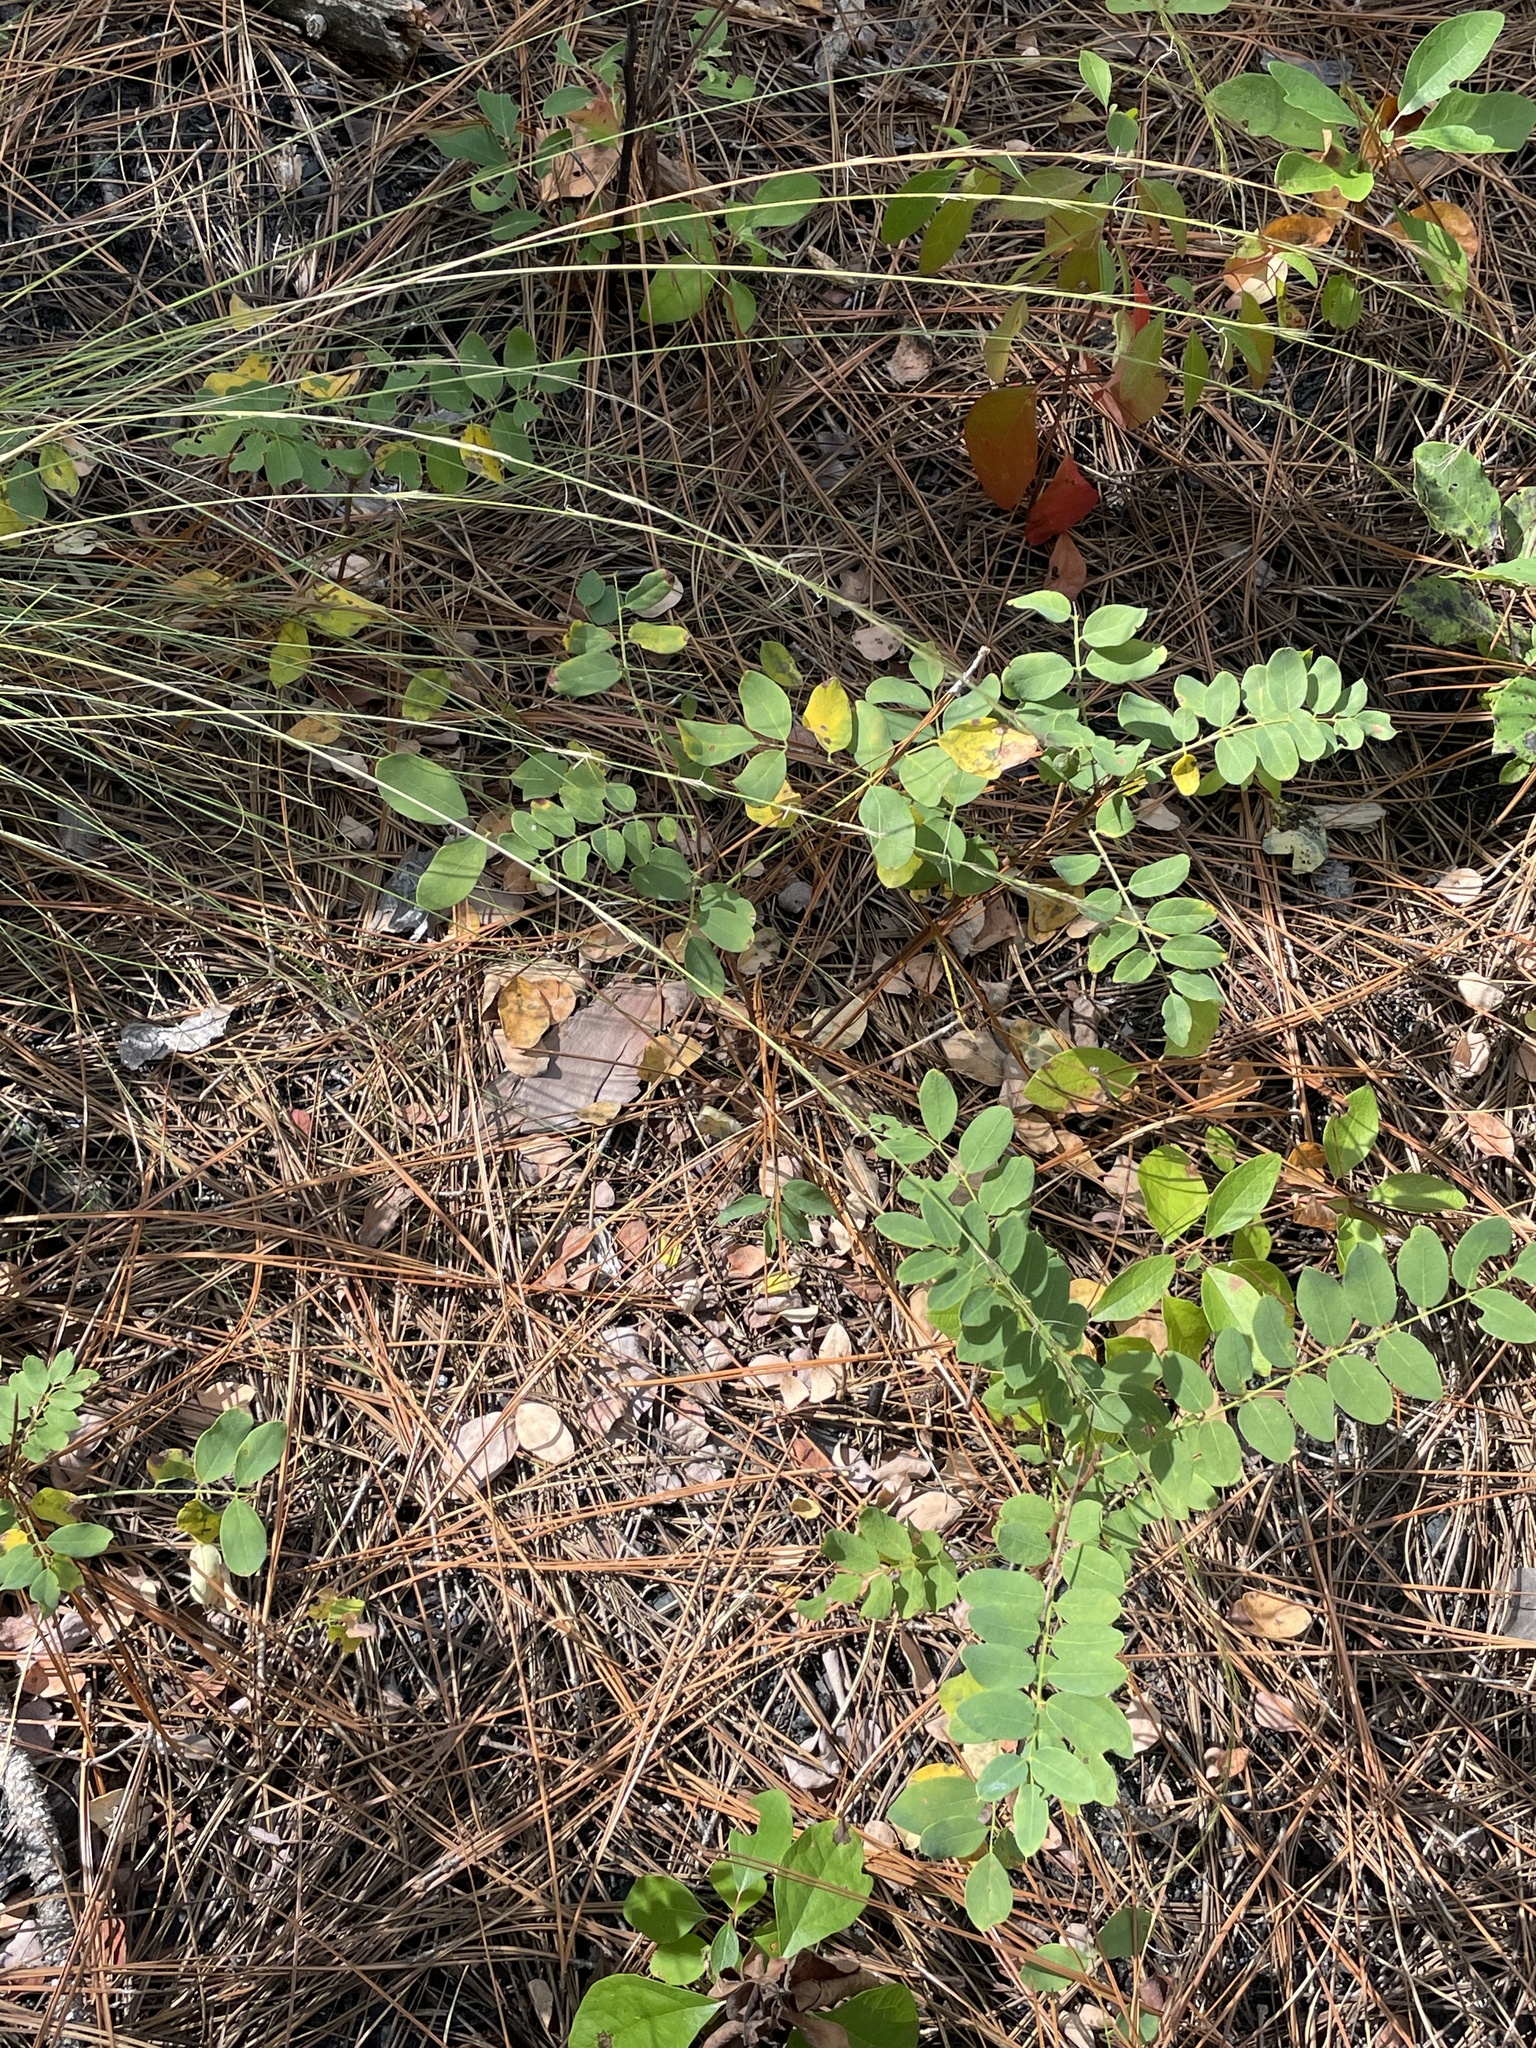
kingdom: Plantae
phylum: Tracheophyta
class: Magnoliopsida
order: Fabales
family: Fabaceae
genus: Robinia
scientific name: Robinia hispida
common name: Bristly locust
